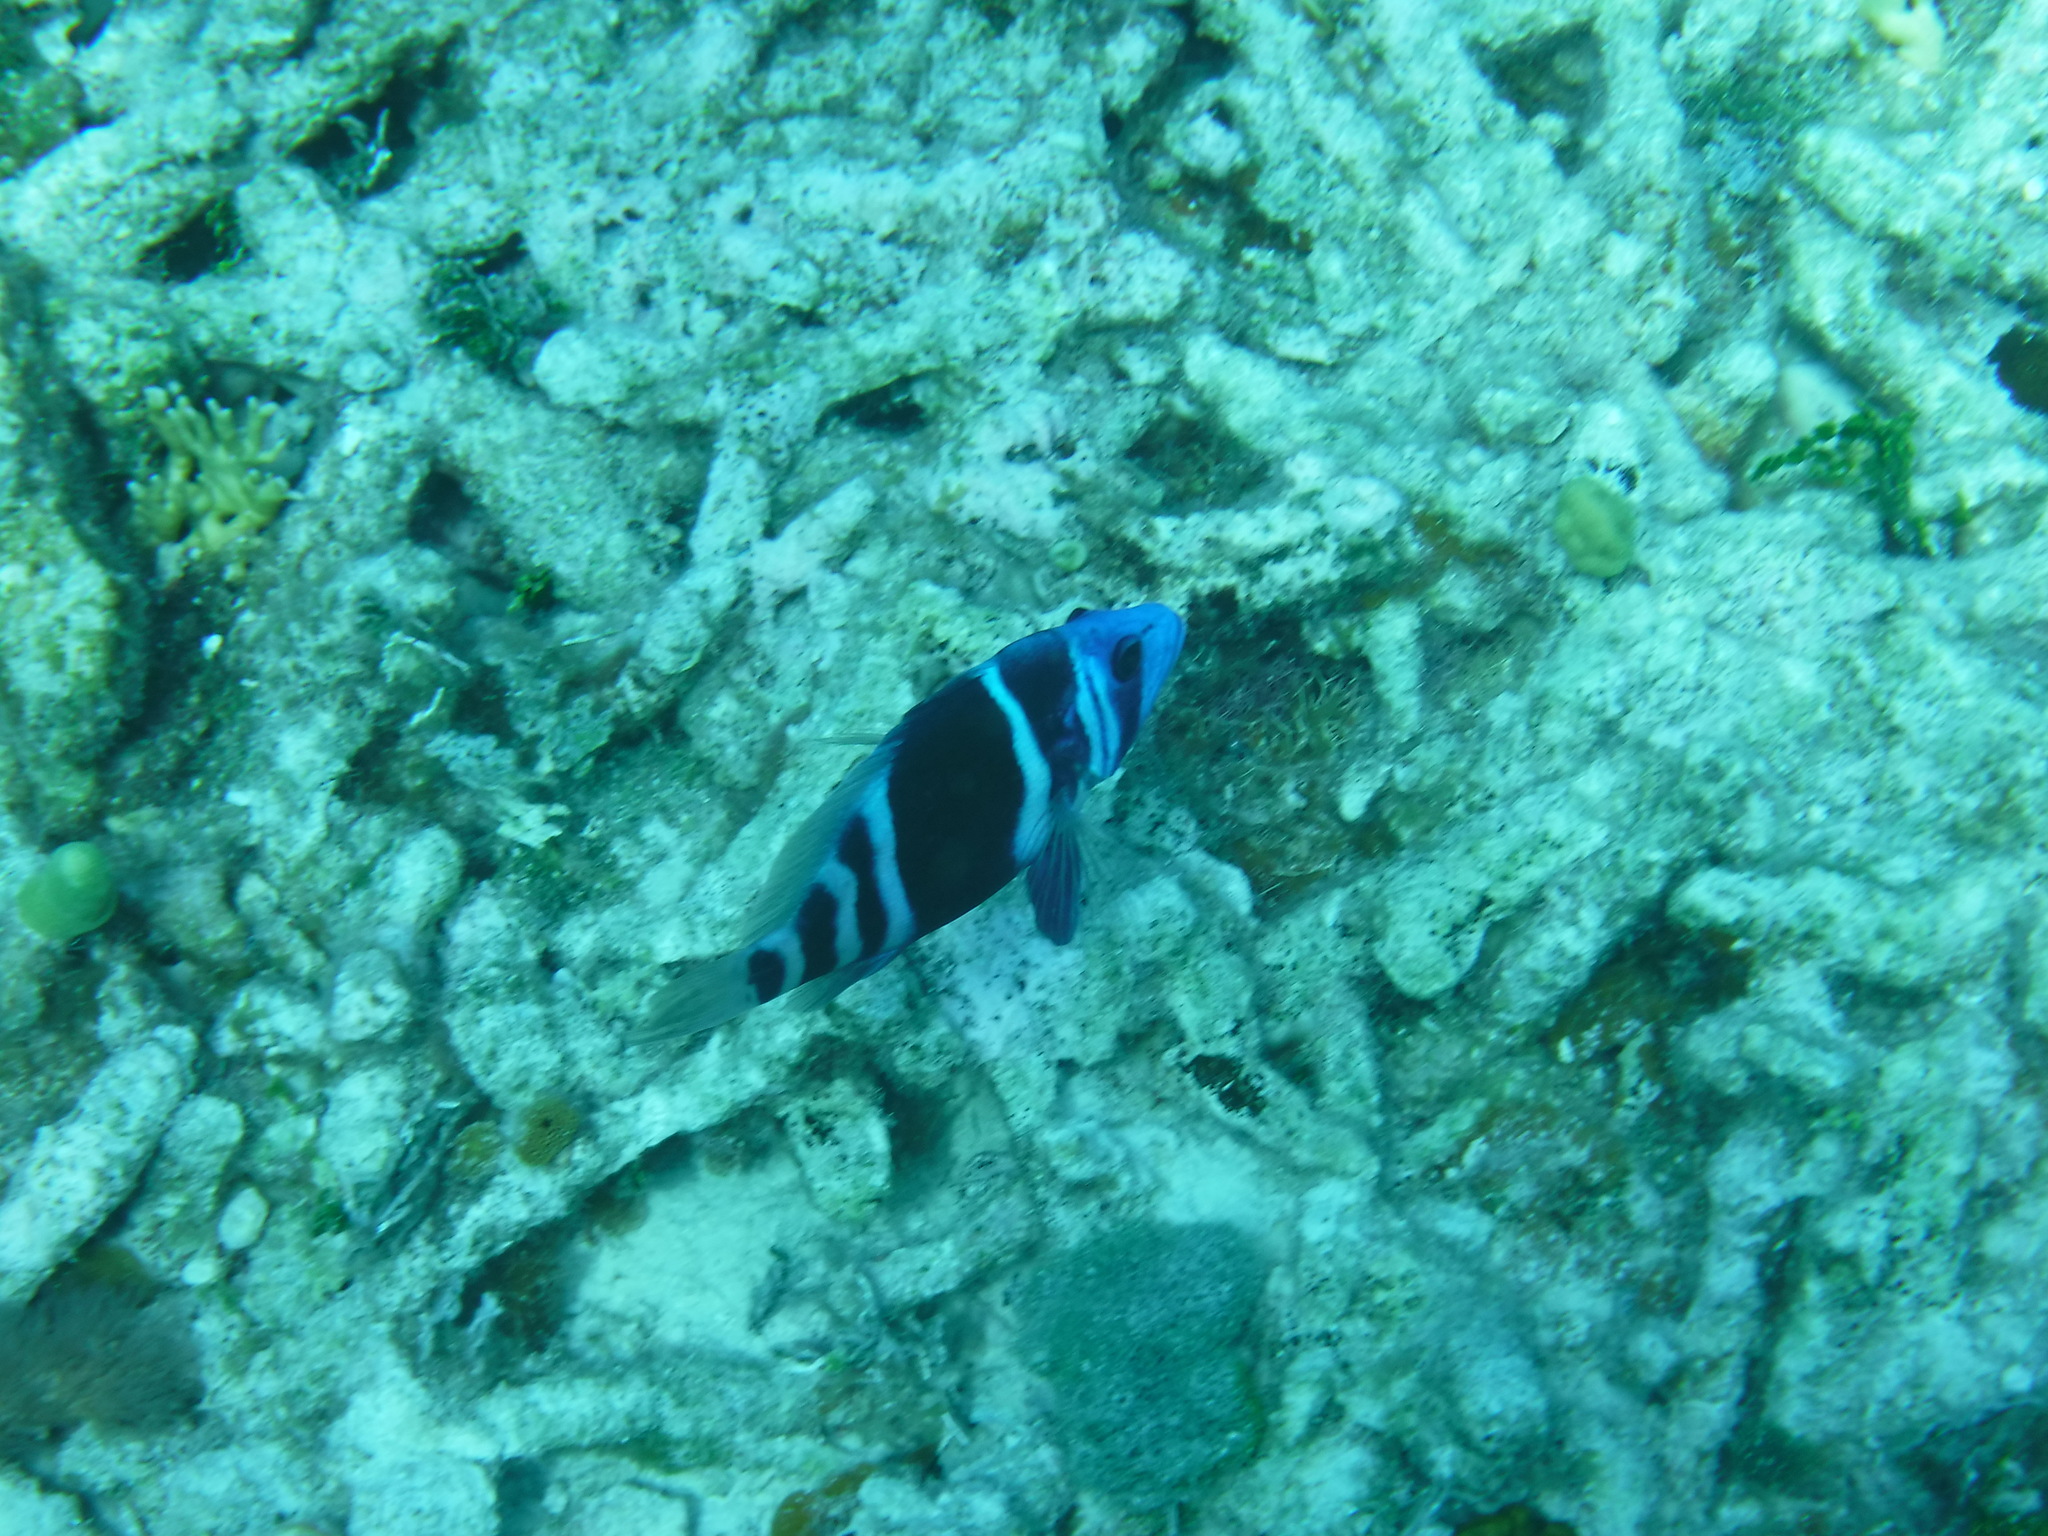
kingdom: Animalia
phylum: Chordata
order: Perciformes
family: Serranidae
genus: Hypoplectrus
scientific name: Hypoplectrus indigo
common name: Indigo hamlet
